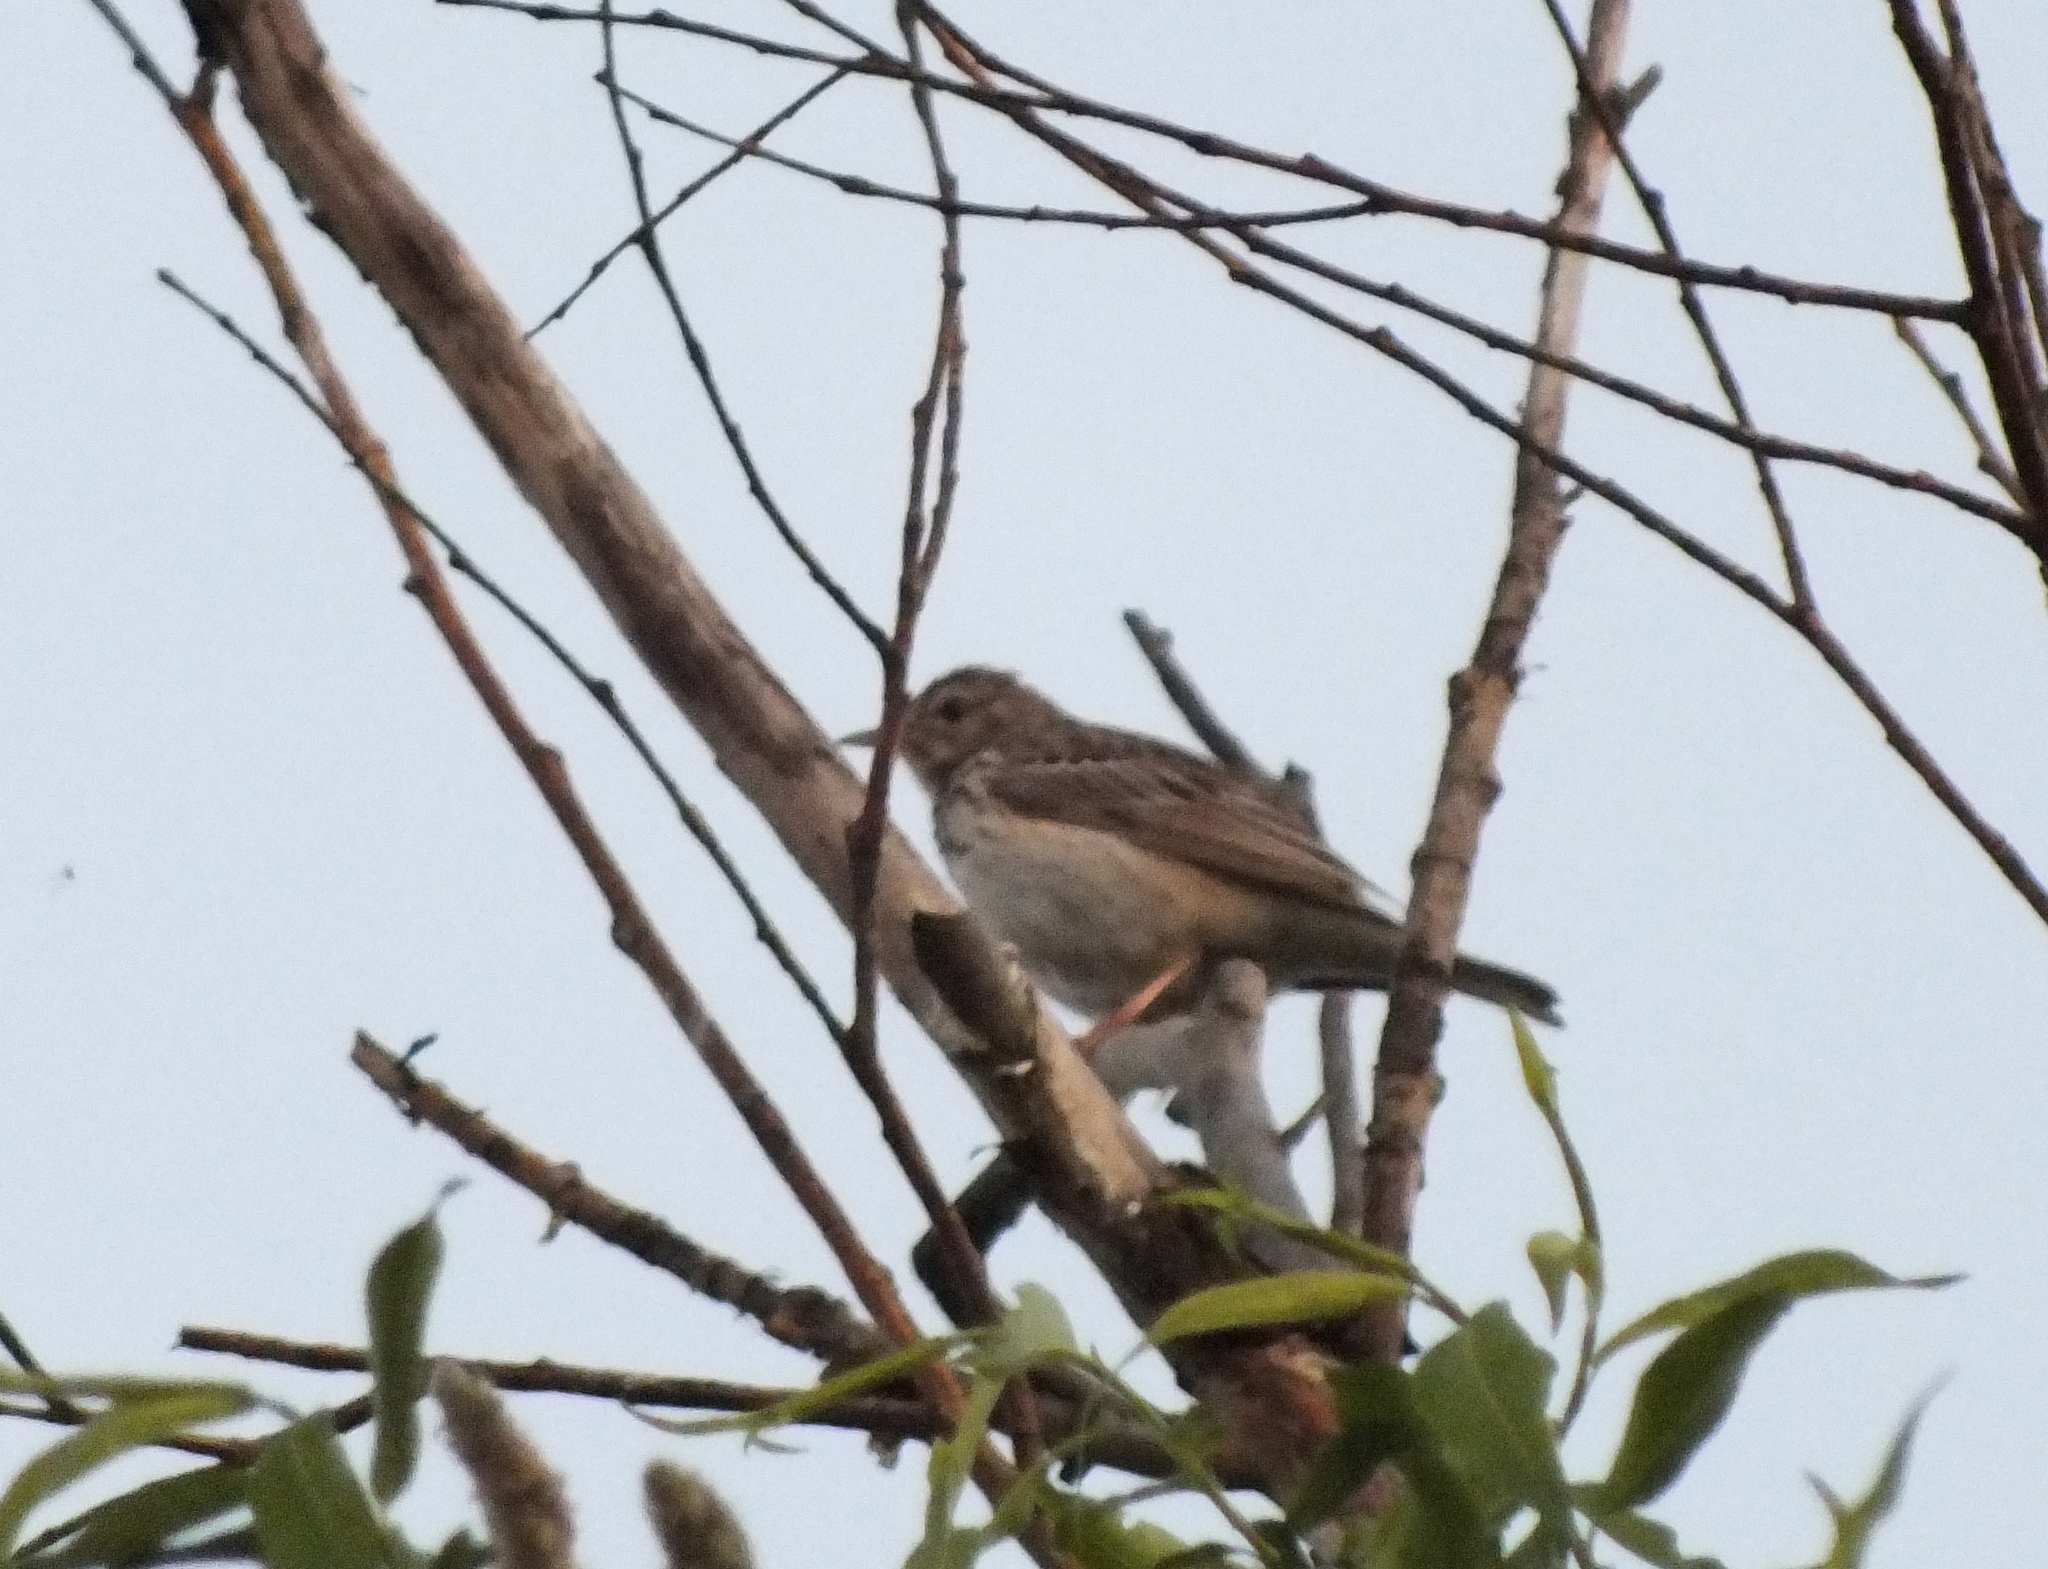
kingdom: Animalia
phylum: Chordata
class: Aves
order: Passeriformes
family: Motacillidae
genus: Anthus
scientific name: Anthus trivialis
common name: Tree pipit
